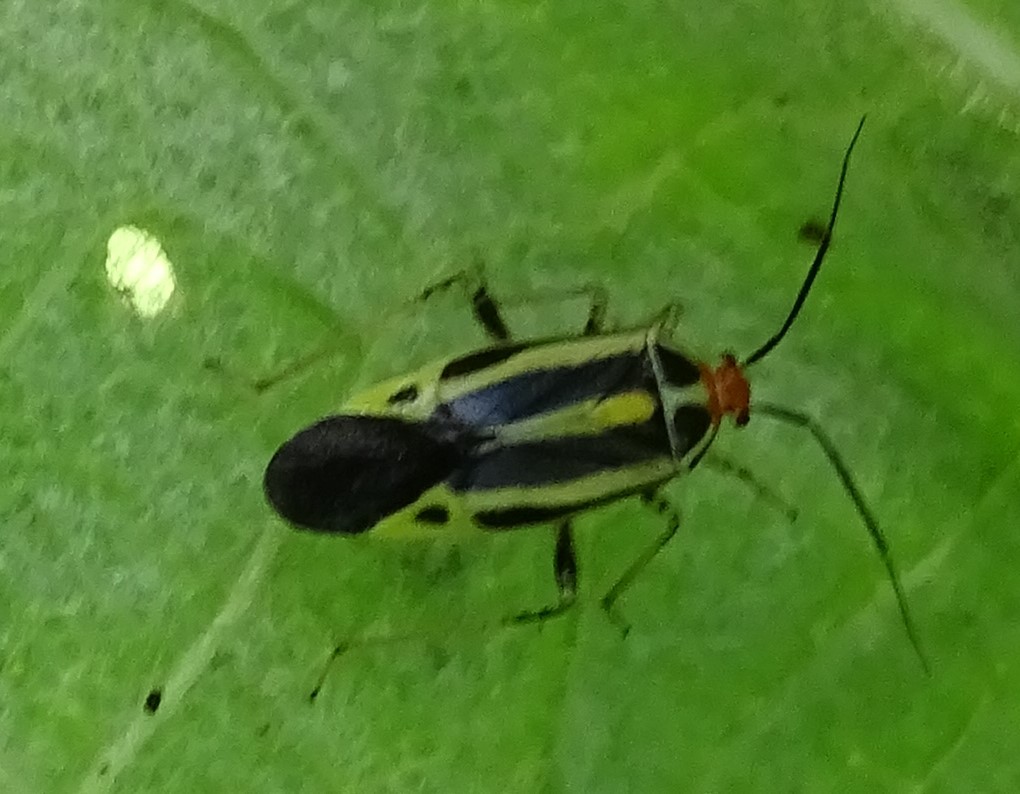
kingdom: Animalia
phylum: Arthropoda
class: Insecta
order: Hemiptera
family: Miridae
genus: Poecilocapsus
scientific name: Poecilocapsus lineatus
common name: Four-lined plant bug
